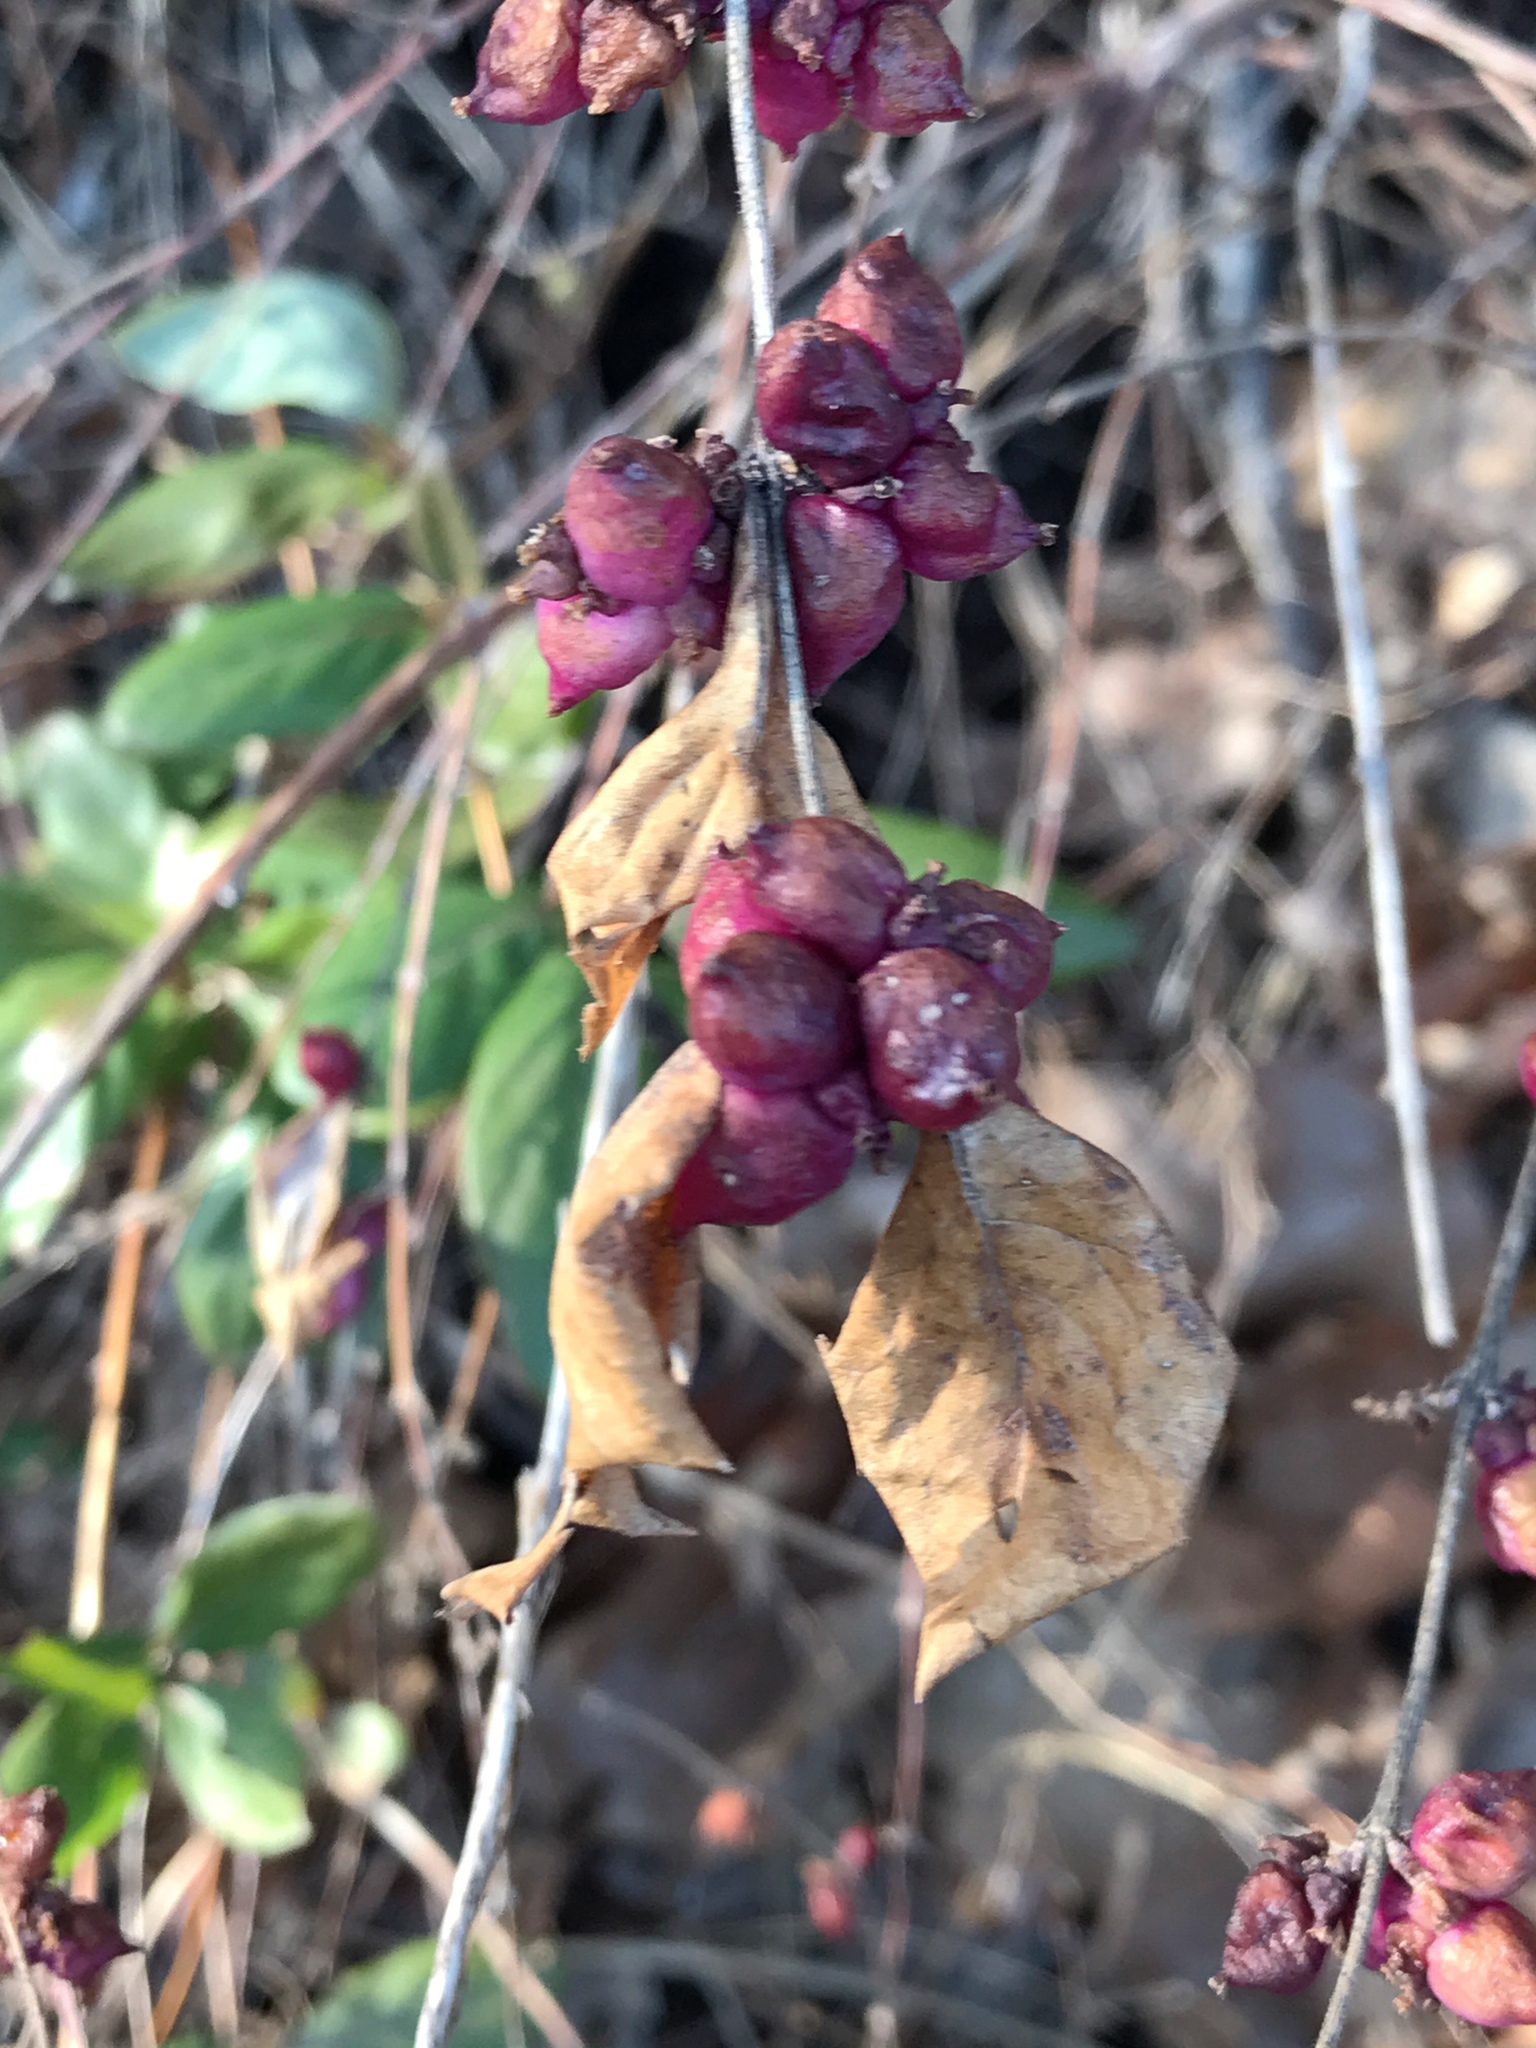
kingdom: Plantae
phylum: Tracheophyta
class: Magnoliopsida
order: Dipsacales
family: Caprifoliaceae
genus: Symphoricarpos
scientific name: Symphoricarpos orbiculatus
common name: Coralberry
